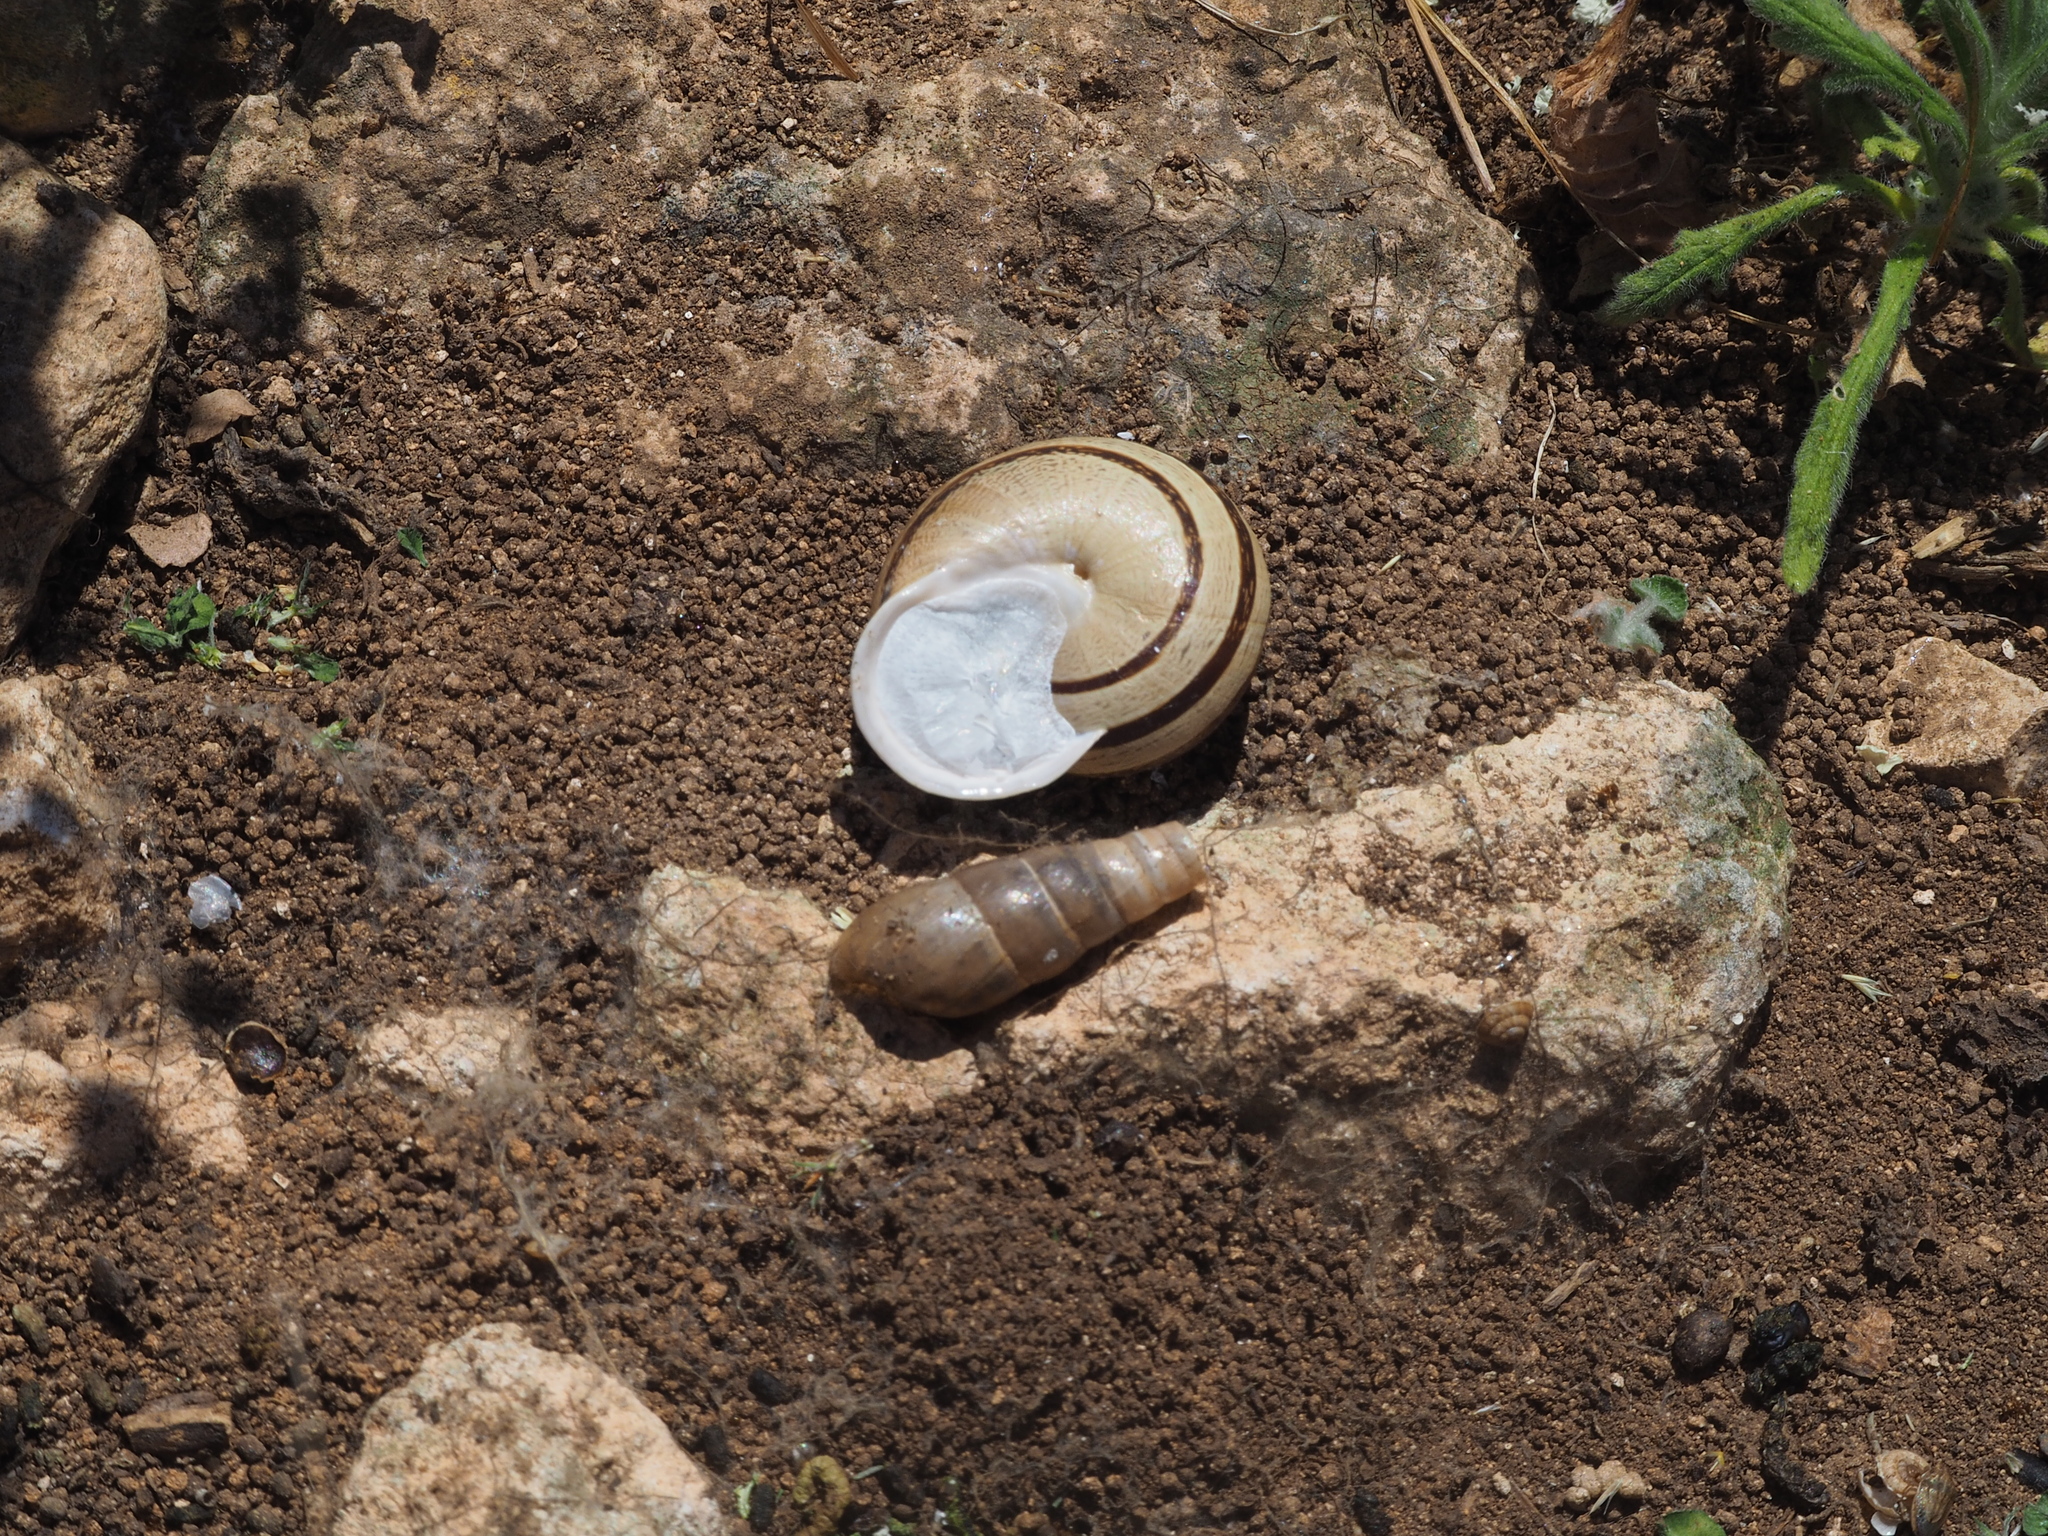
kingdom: Animalia
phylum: Mollusca
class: Gastropoda
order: Stylommatophora
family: Helicidae
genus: Eobania
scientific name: Eobania vermiculata
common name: Chocolateband snail
